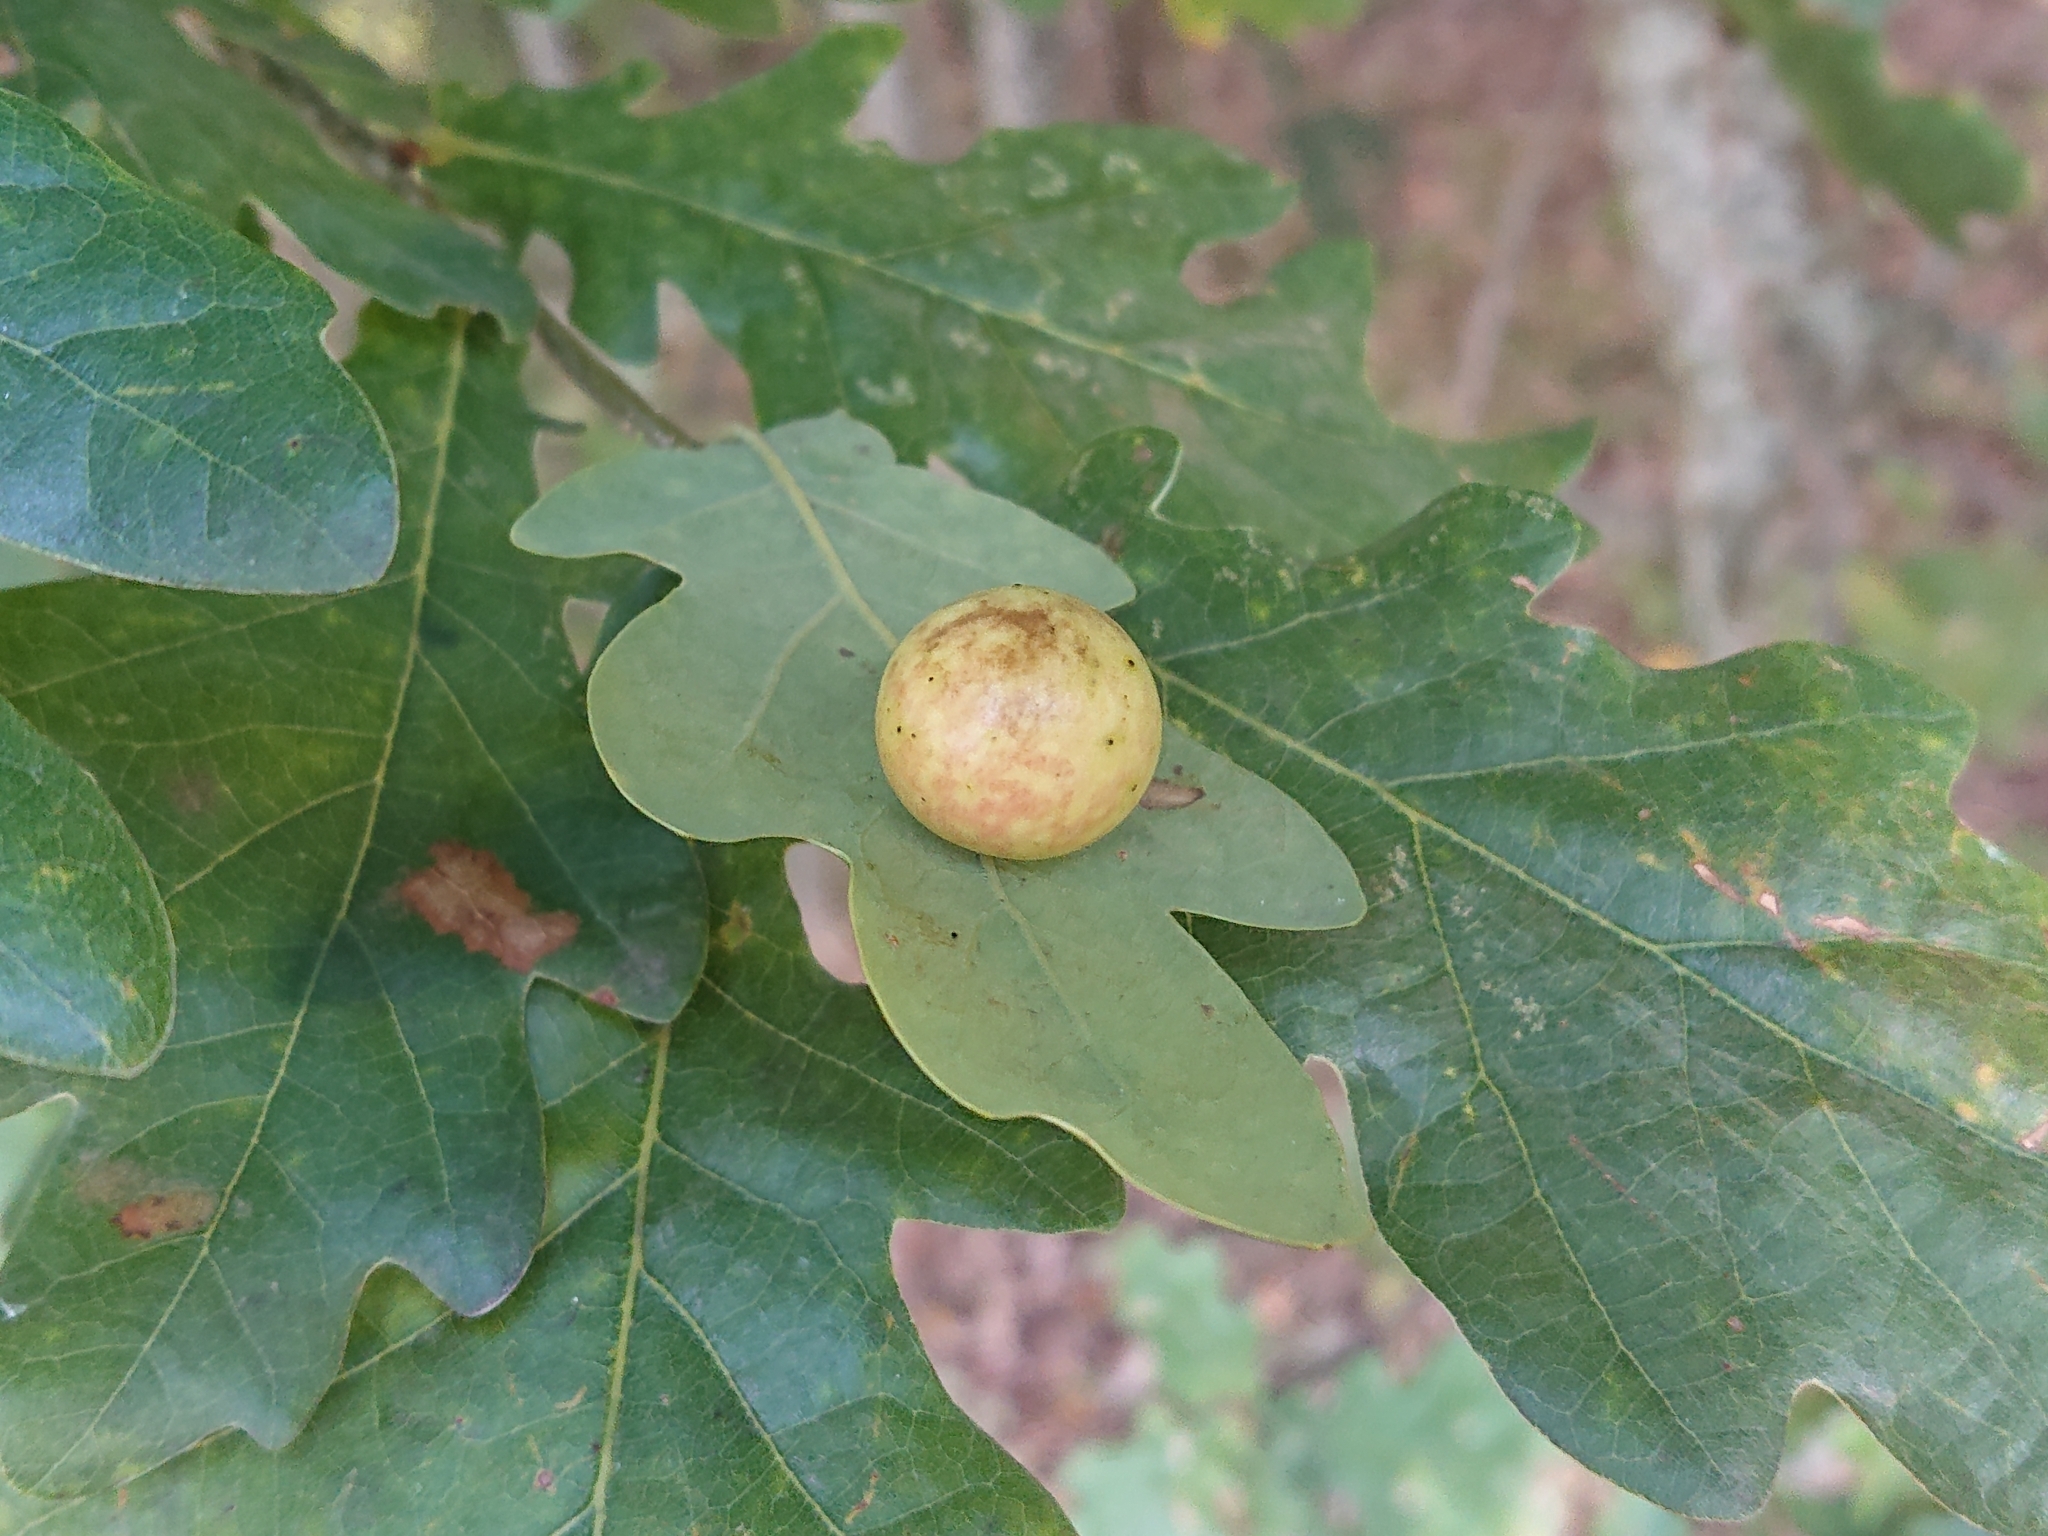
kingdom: Animalia
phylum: Arthropoda
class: Insecta
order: Hymenoptera
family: Cynipidae
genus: Cynips
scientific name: Cynips quercusfolii
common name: Cherry gall
